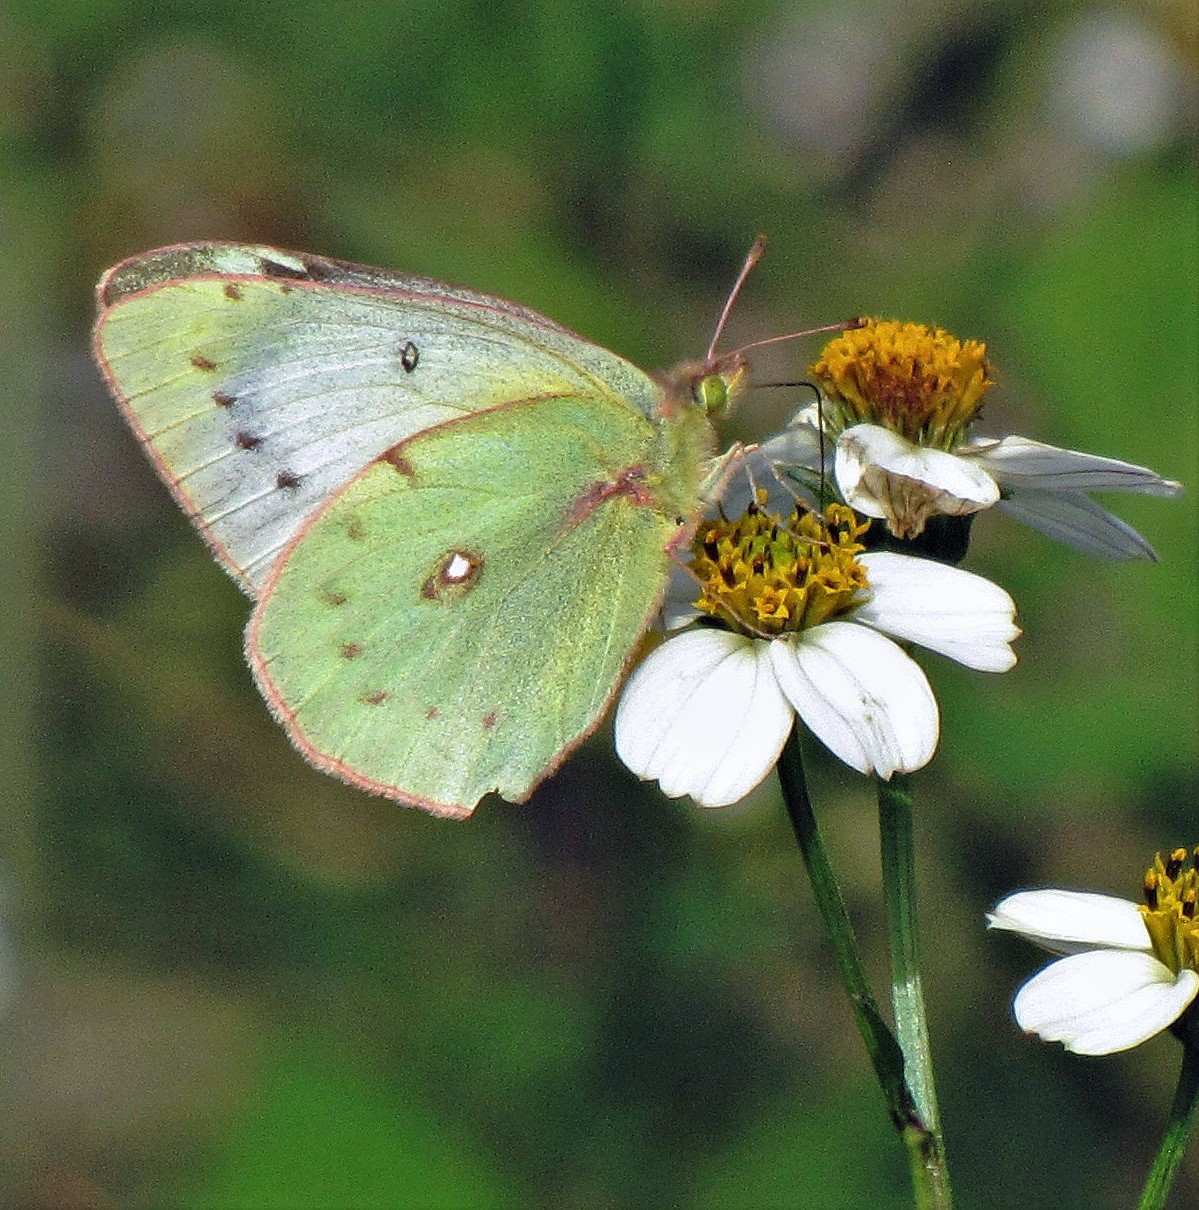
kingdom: Animalia
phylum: Arthropoda
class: Insecta
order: Lepidoptera
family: Pieridae
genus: Colias
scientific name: Colias lesbia
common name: Lesbia clouded yellow
